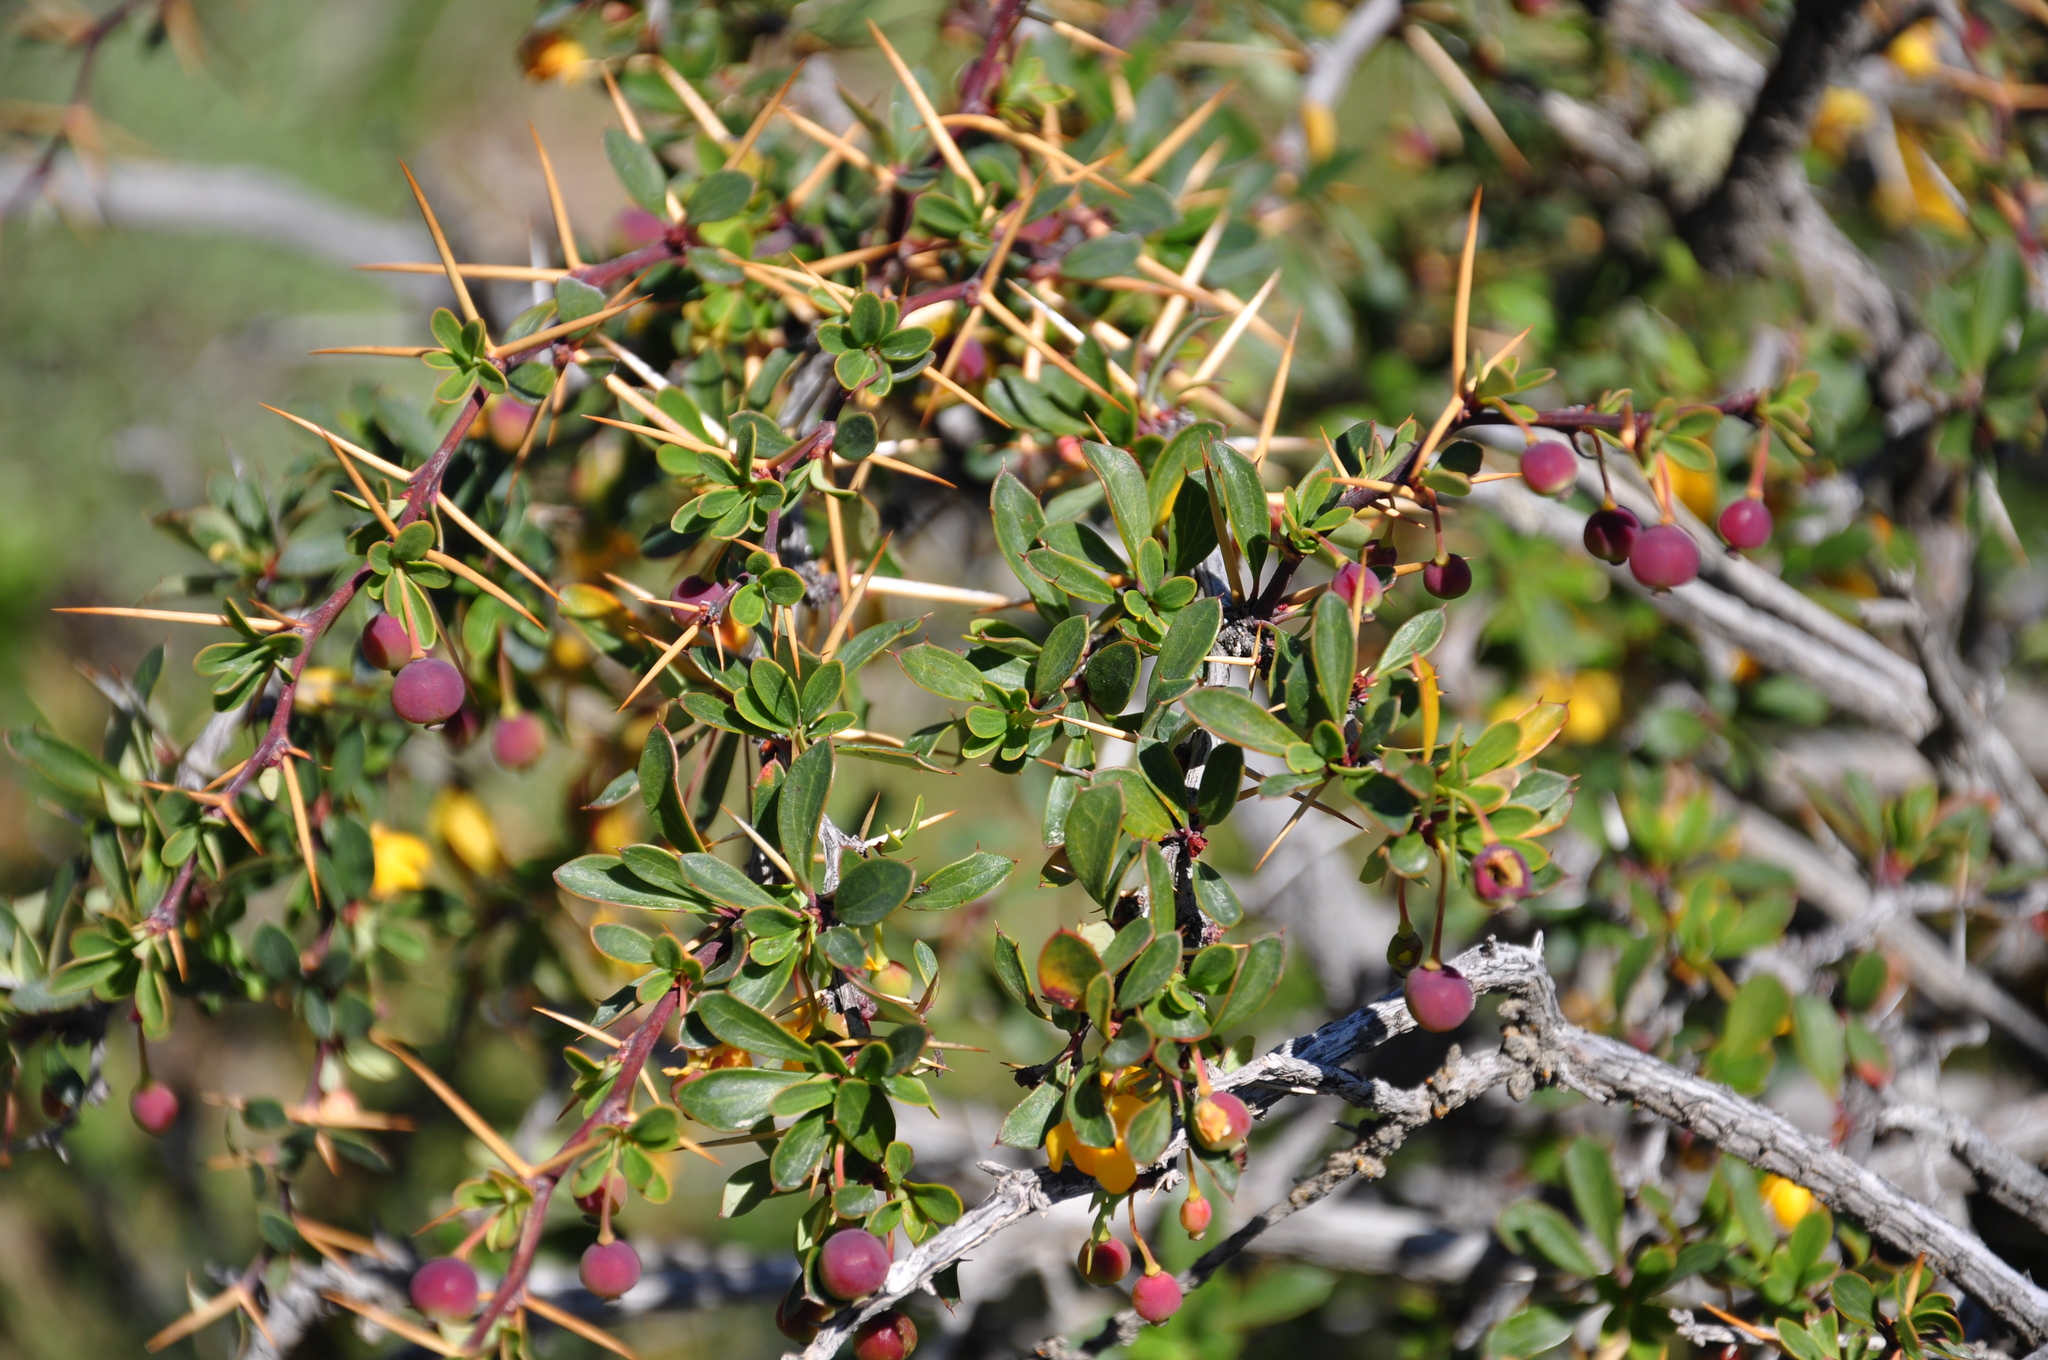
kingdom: Plantae
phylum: Tracheophyta
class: Magnoliopsida
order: Ranunculales
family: Berberidaceae
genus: Berberis
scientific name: Berberis microphylla
